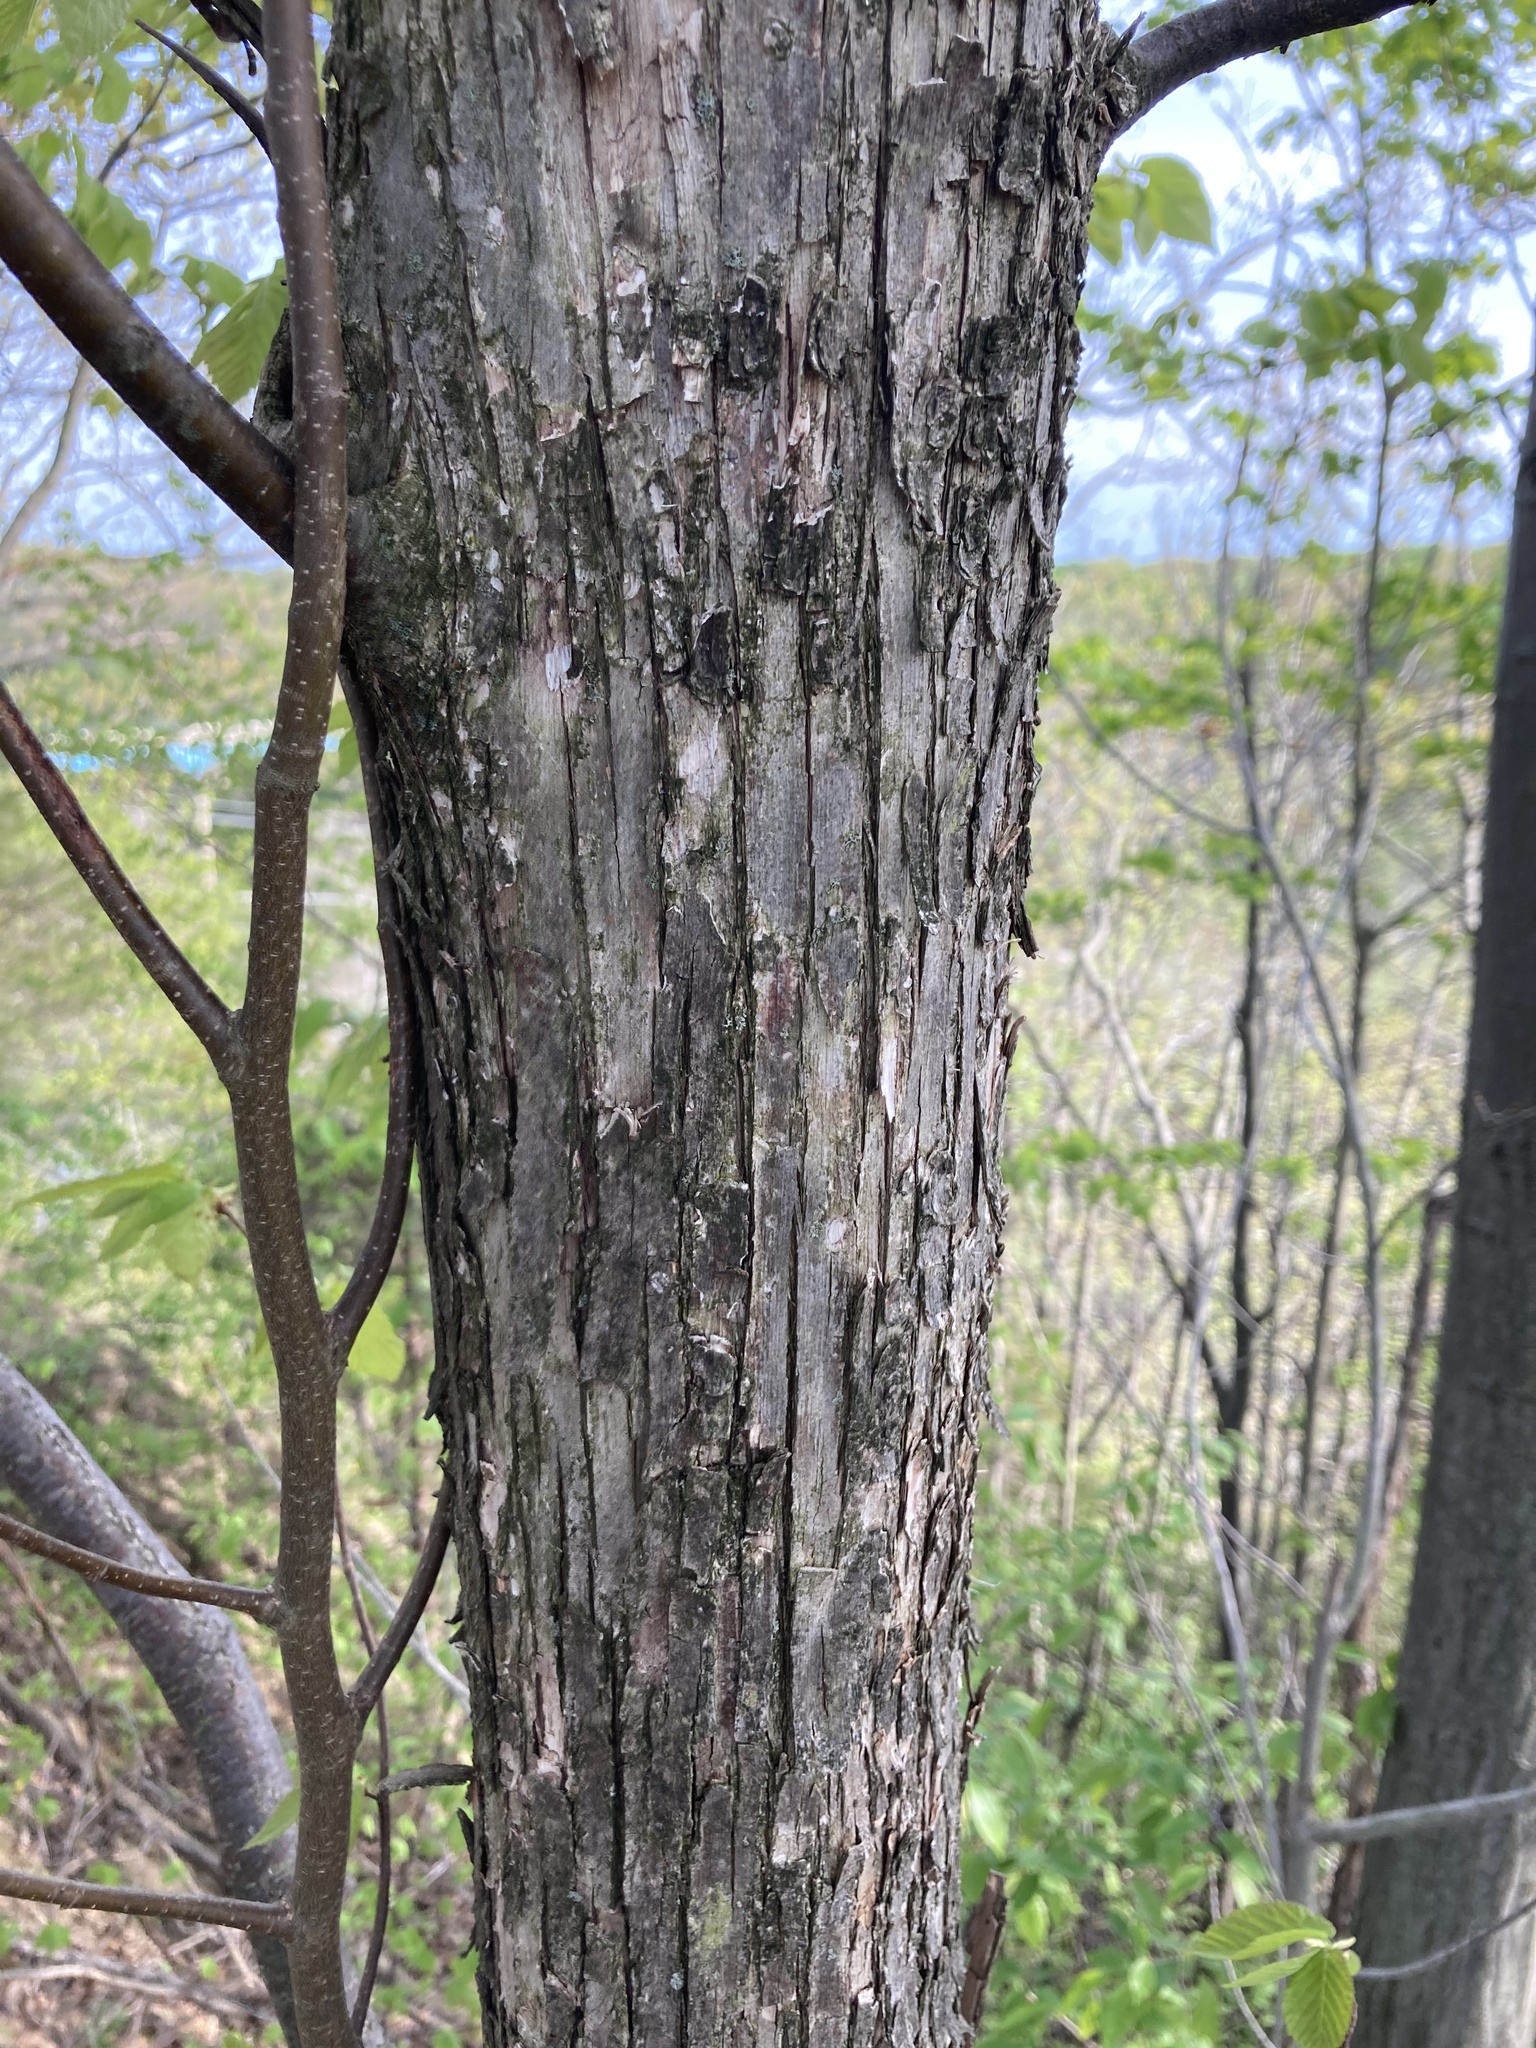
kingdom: Plantae
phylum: Tracheophyta
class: Magnoliopsida
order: Fagales
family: Betulaceae
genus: Ostrya
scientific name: Ostrya virginiana
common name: Ironwood
